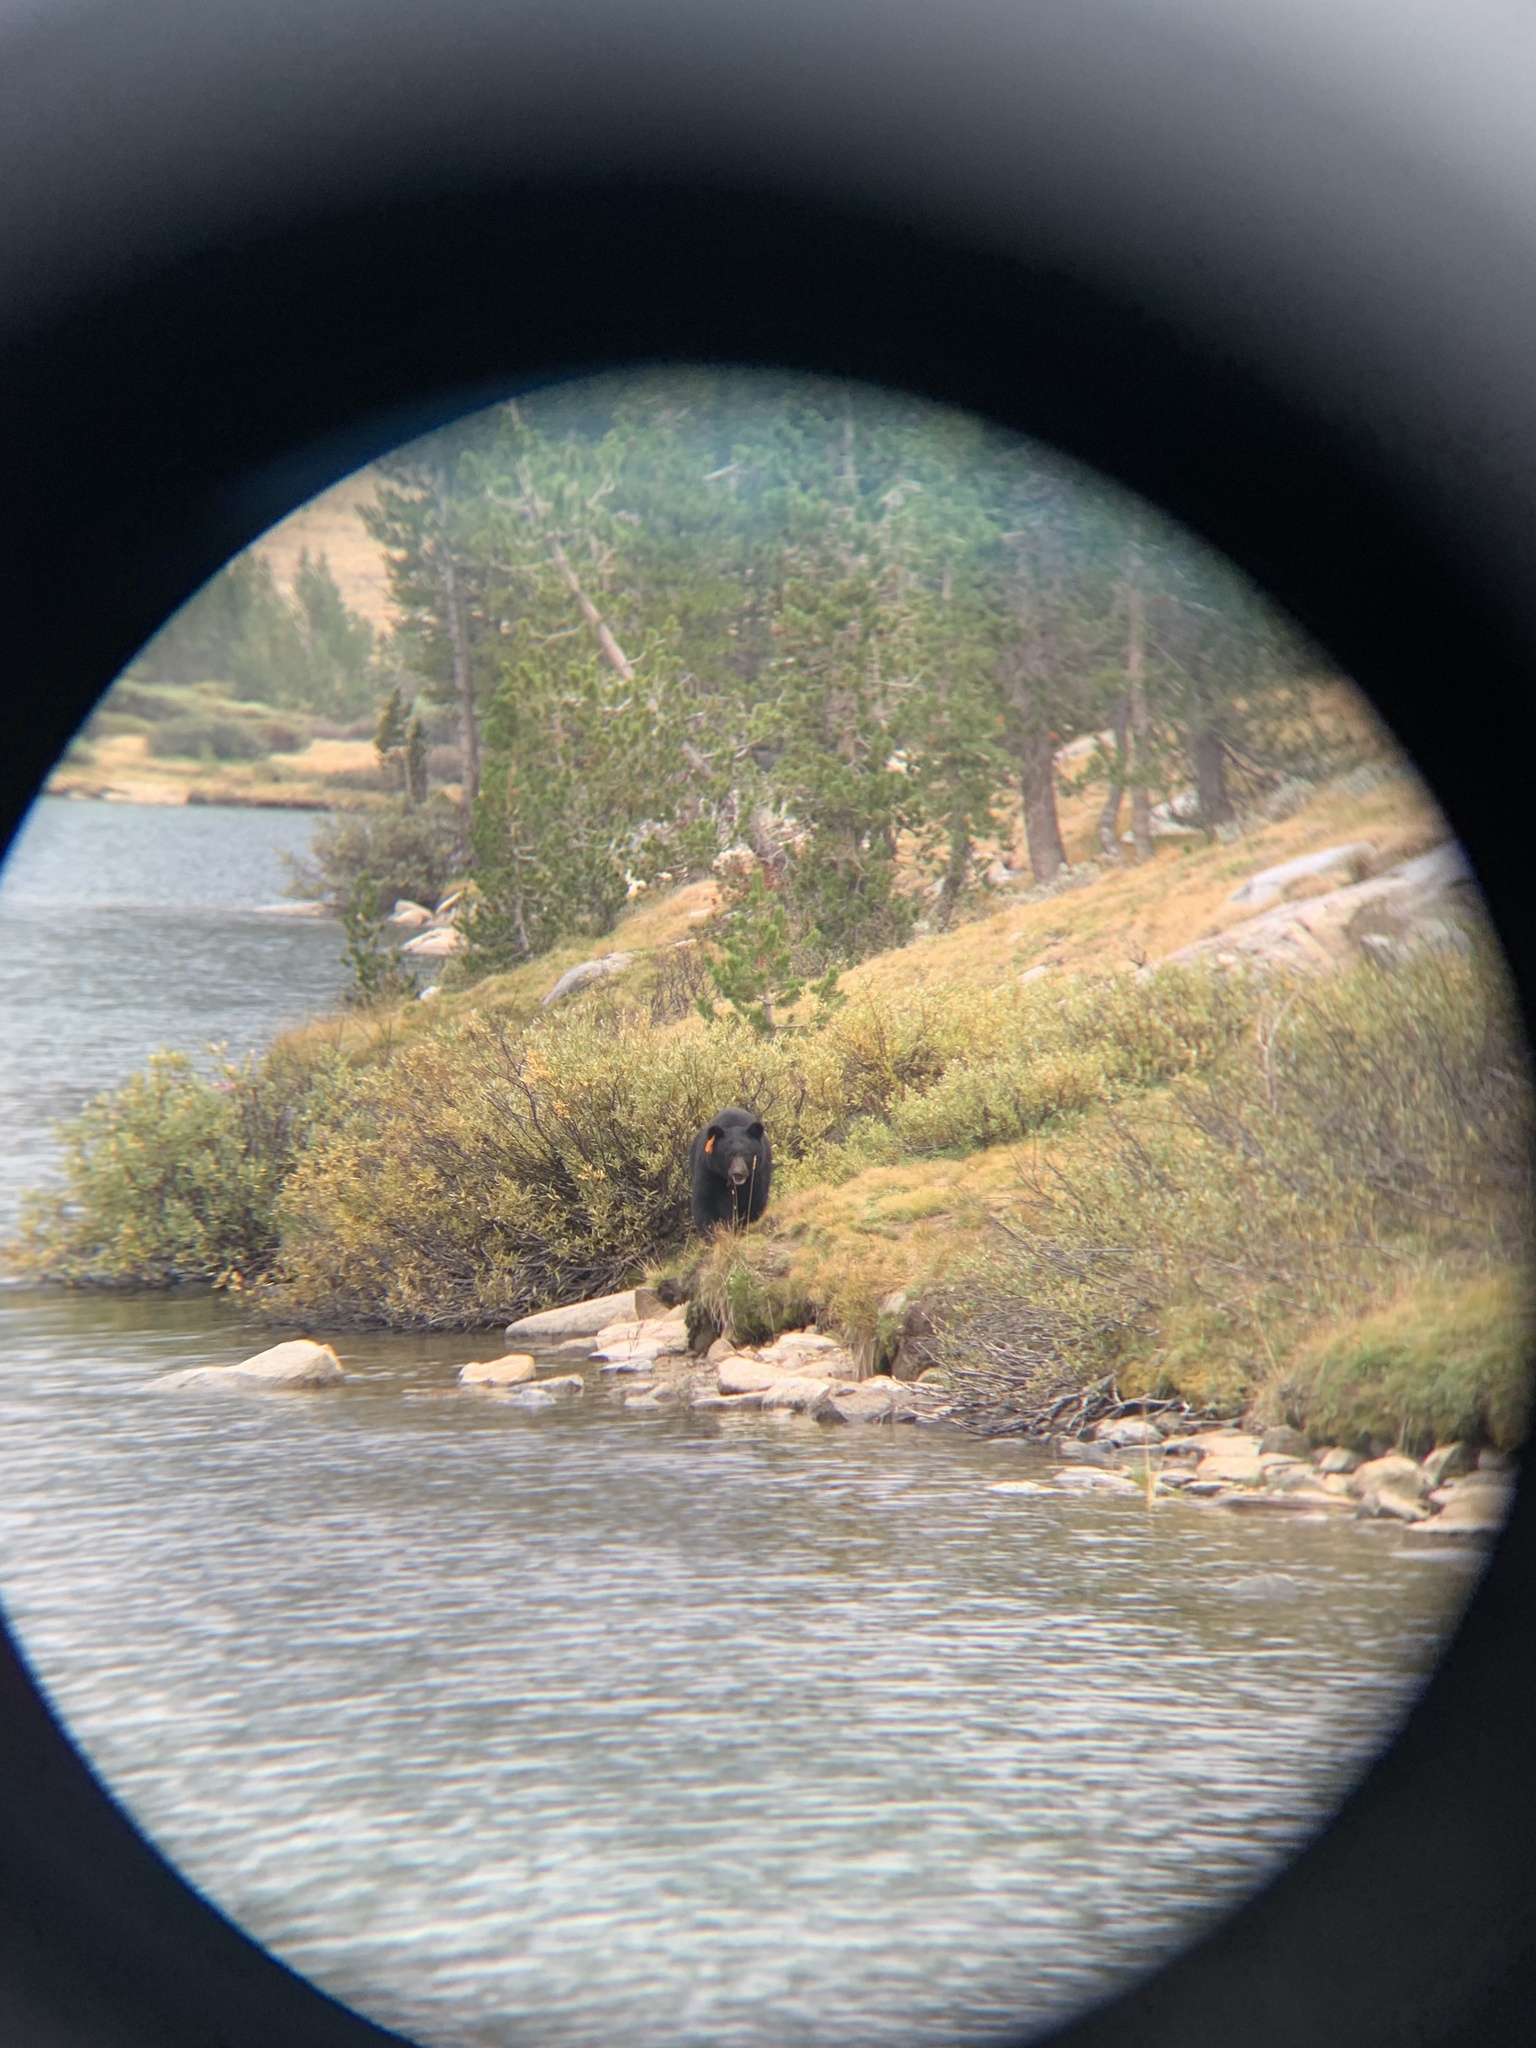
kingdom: Animalia
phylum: Chordata
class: Mammalia
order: Carnivora
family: Ursidae
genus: Ursus
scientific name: Ursus americanus
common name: American black bear
